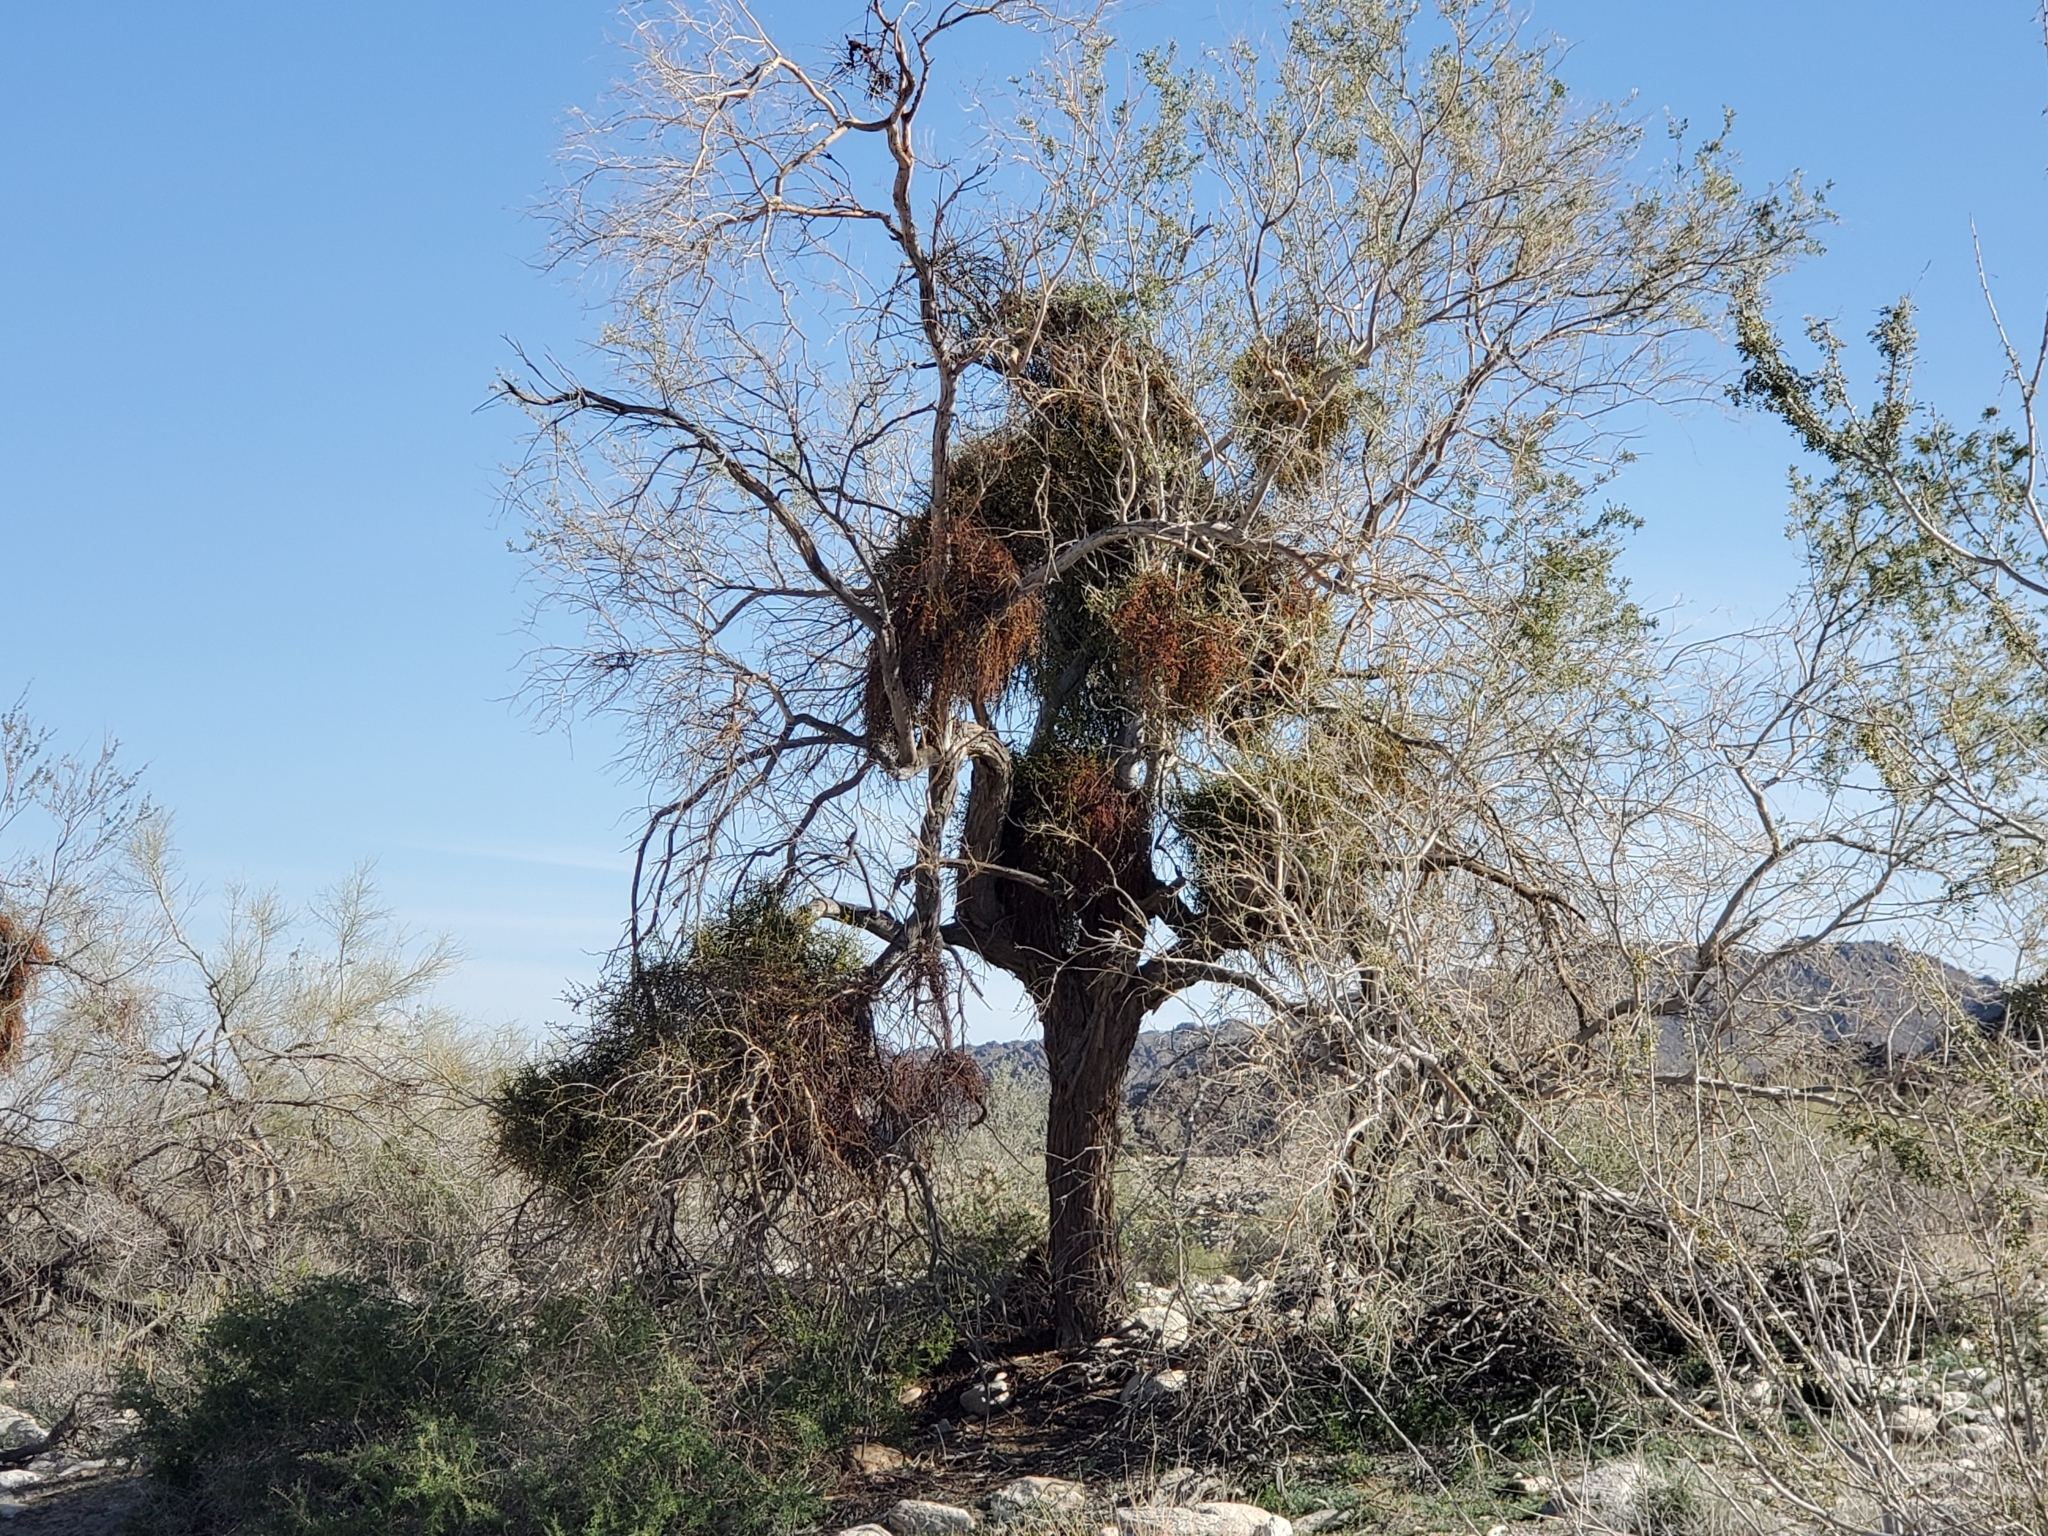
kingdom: Plantae
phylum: Tracheophyta
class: Magnoliopsida
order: Santalales
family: Viscaceae
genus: Phoradendron
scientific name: Phoradendron californicum
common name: Acacia mistletoe
